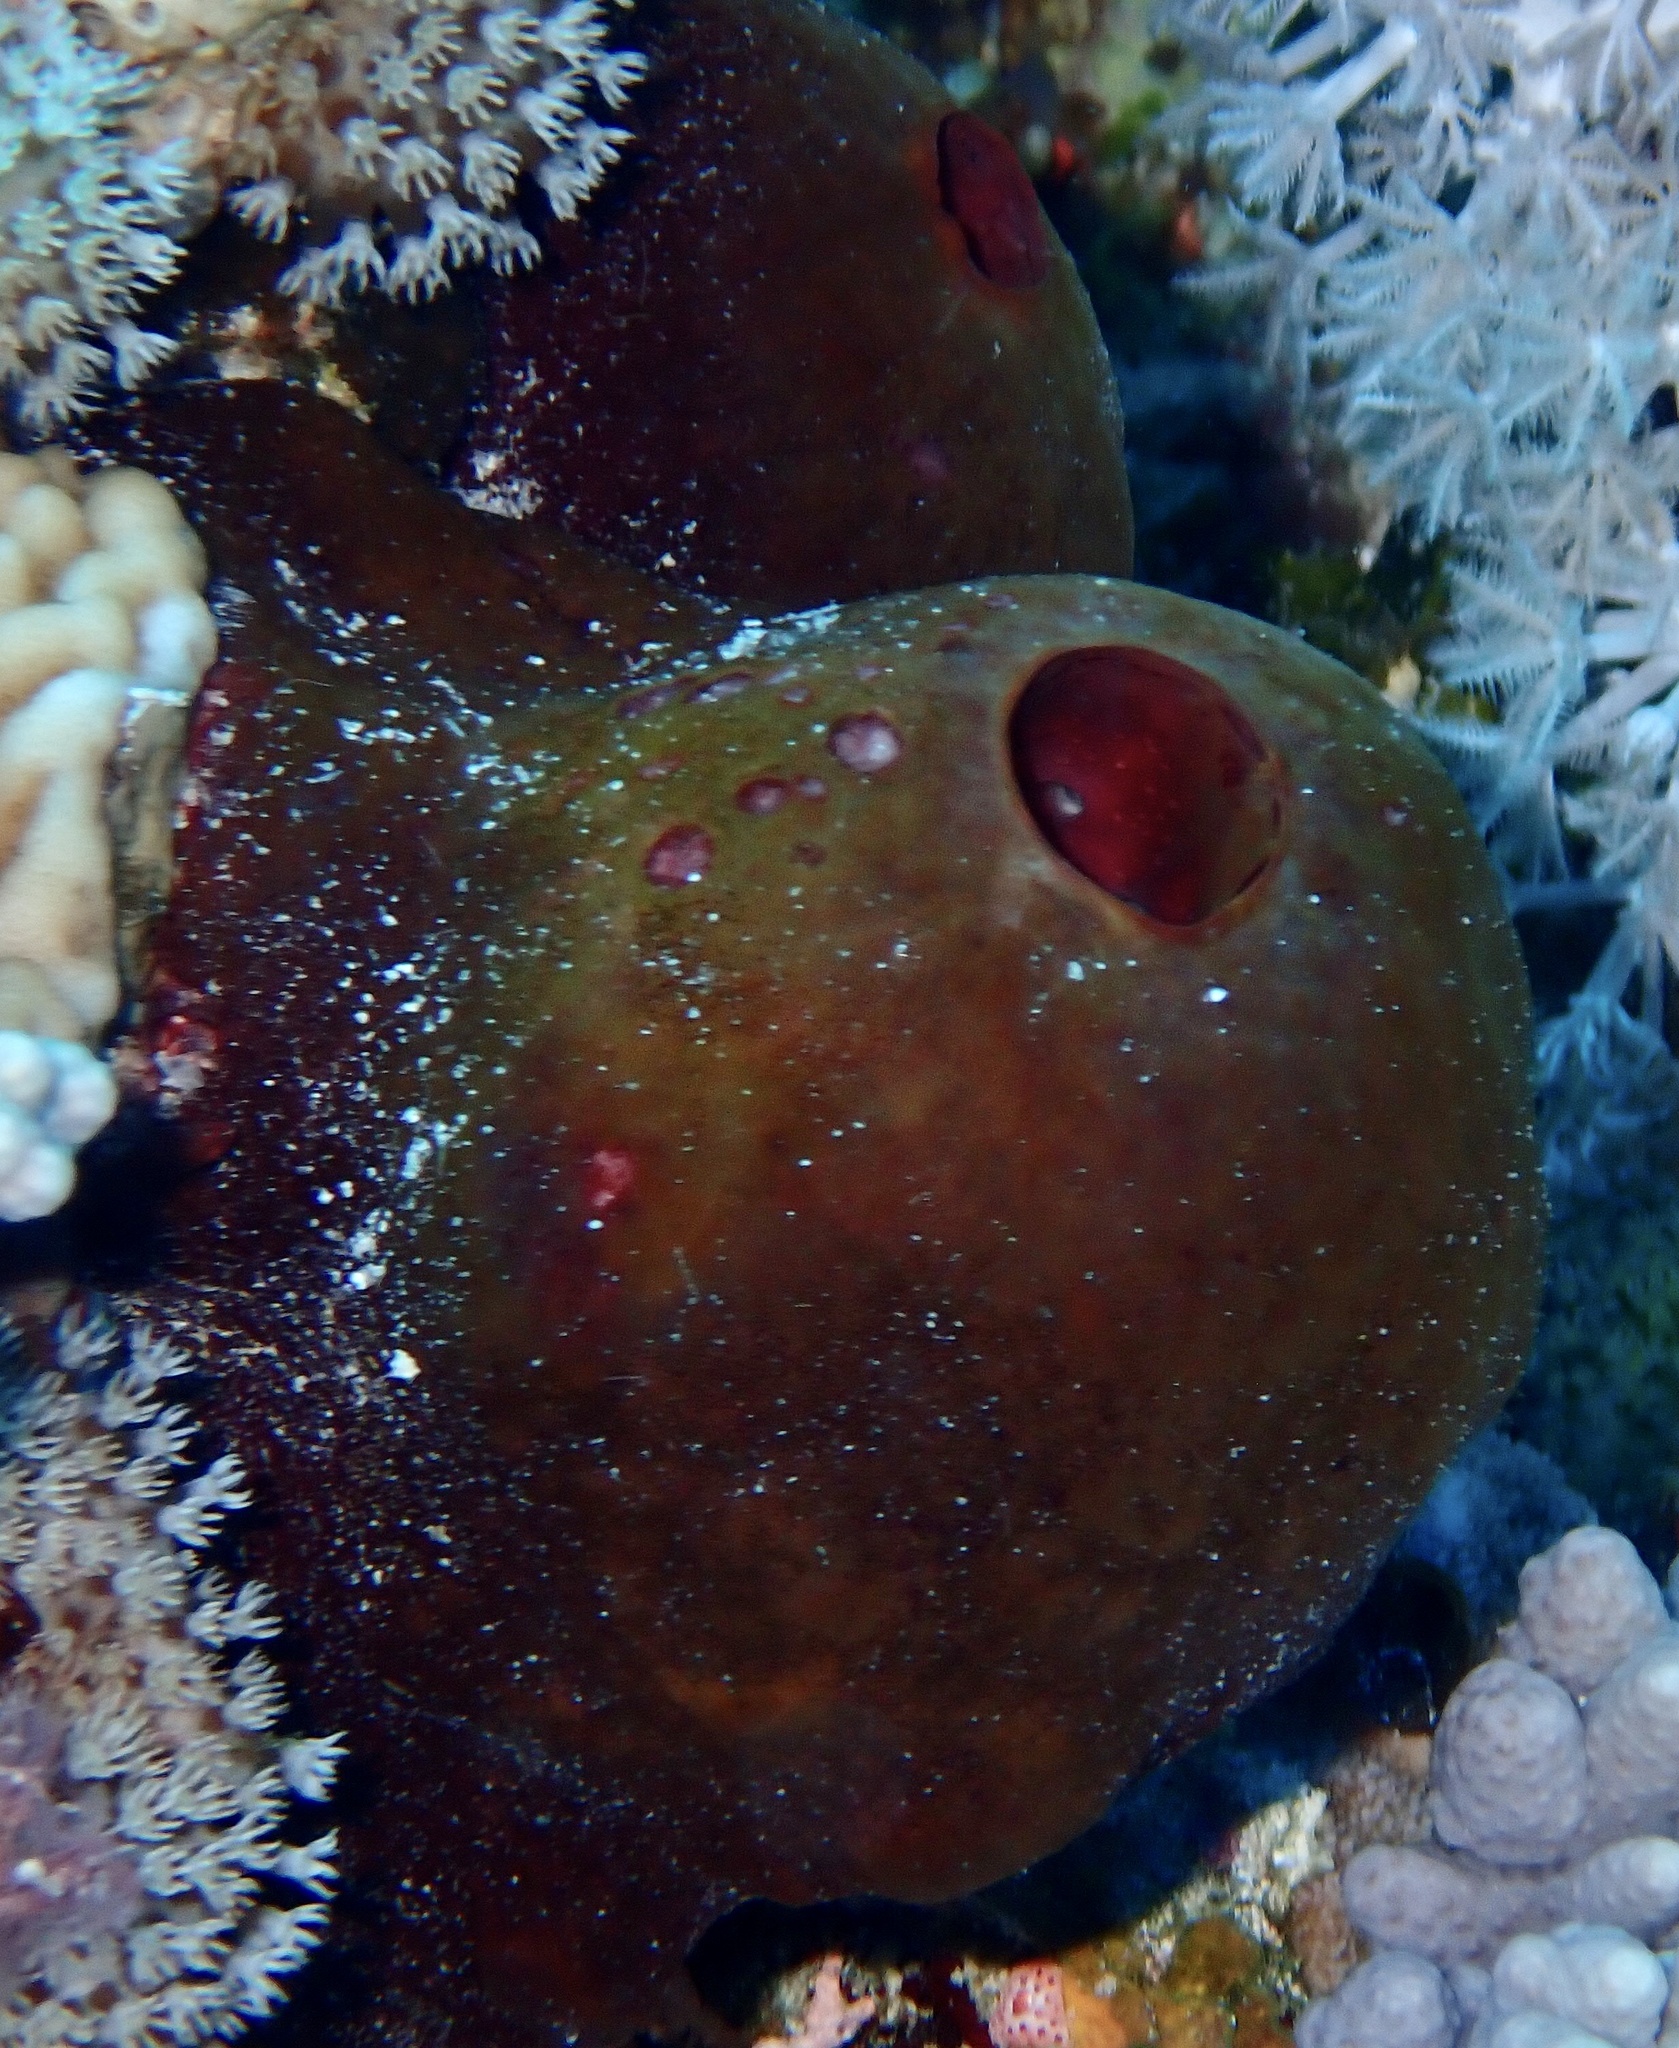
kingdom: Animalia
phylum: Porifera
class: Demospongiae
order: Tetractinellida
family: Theonellidae
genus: Theonella
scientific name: Theonella swinhoei
